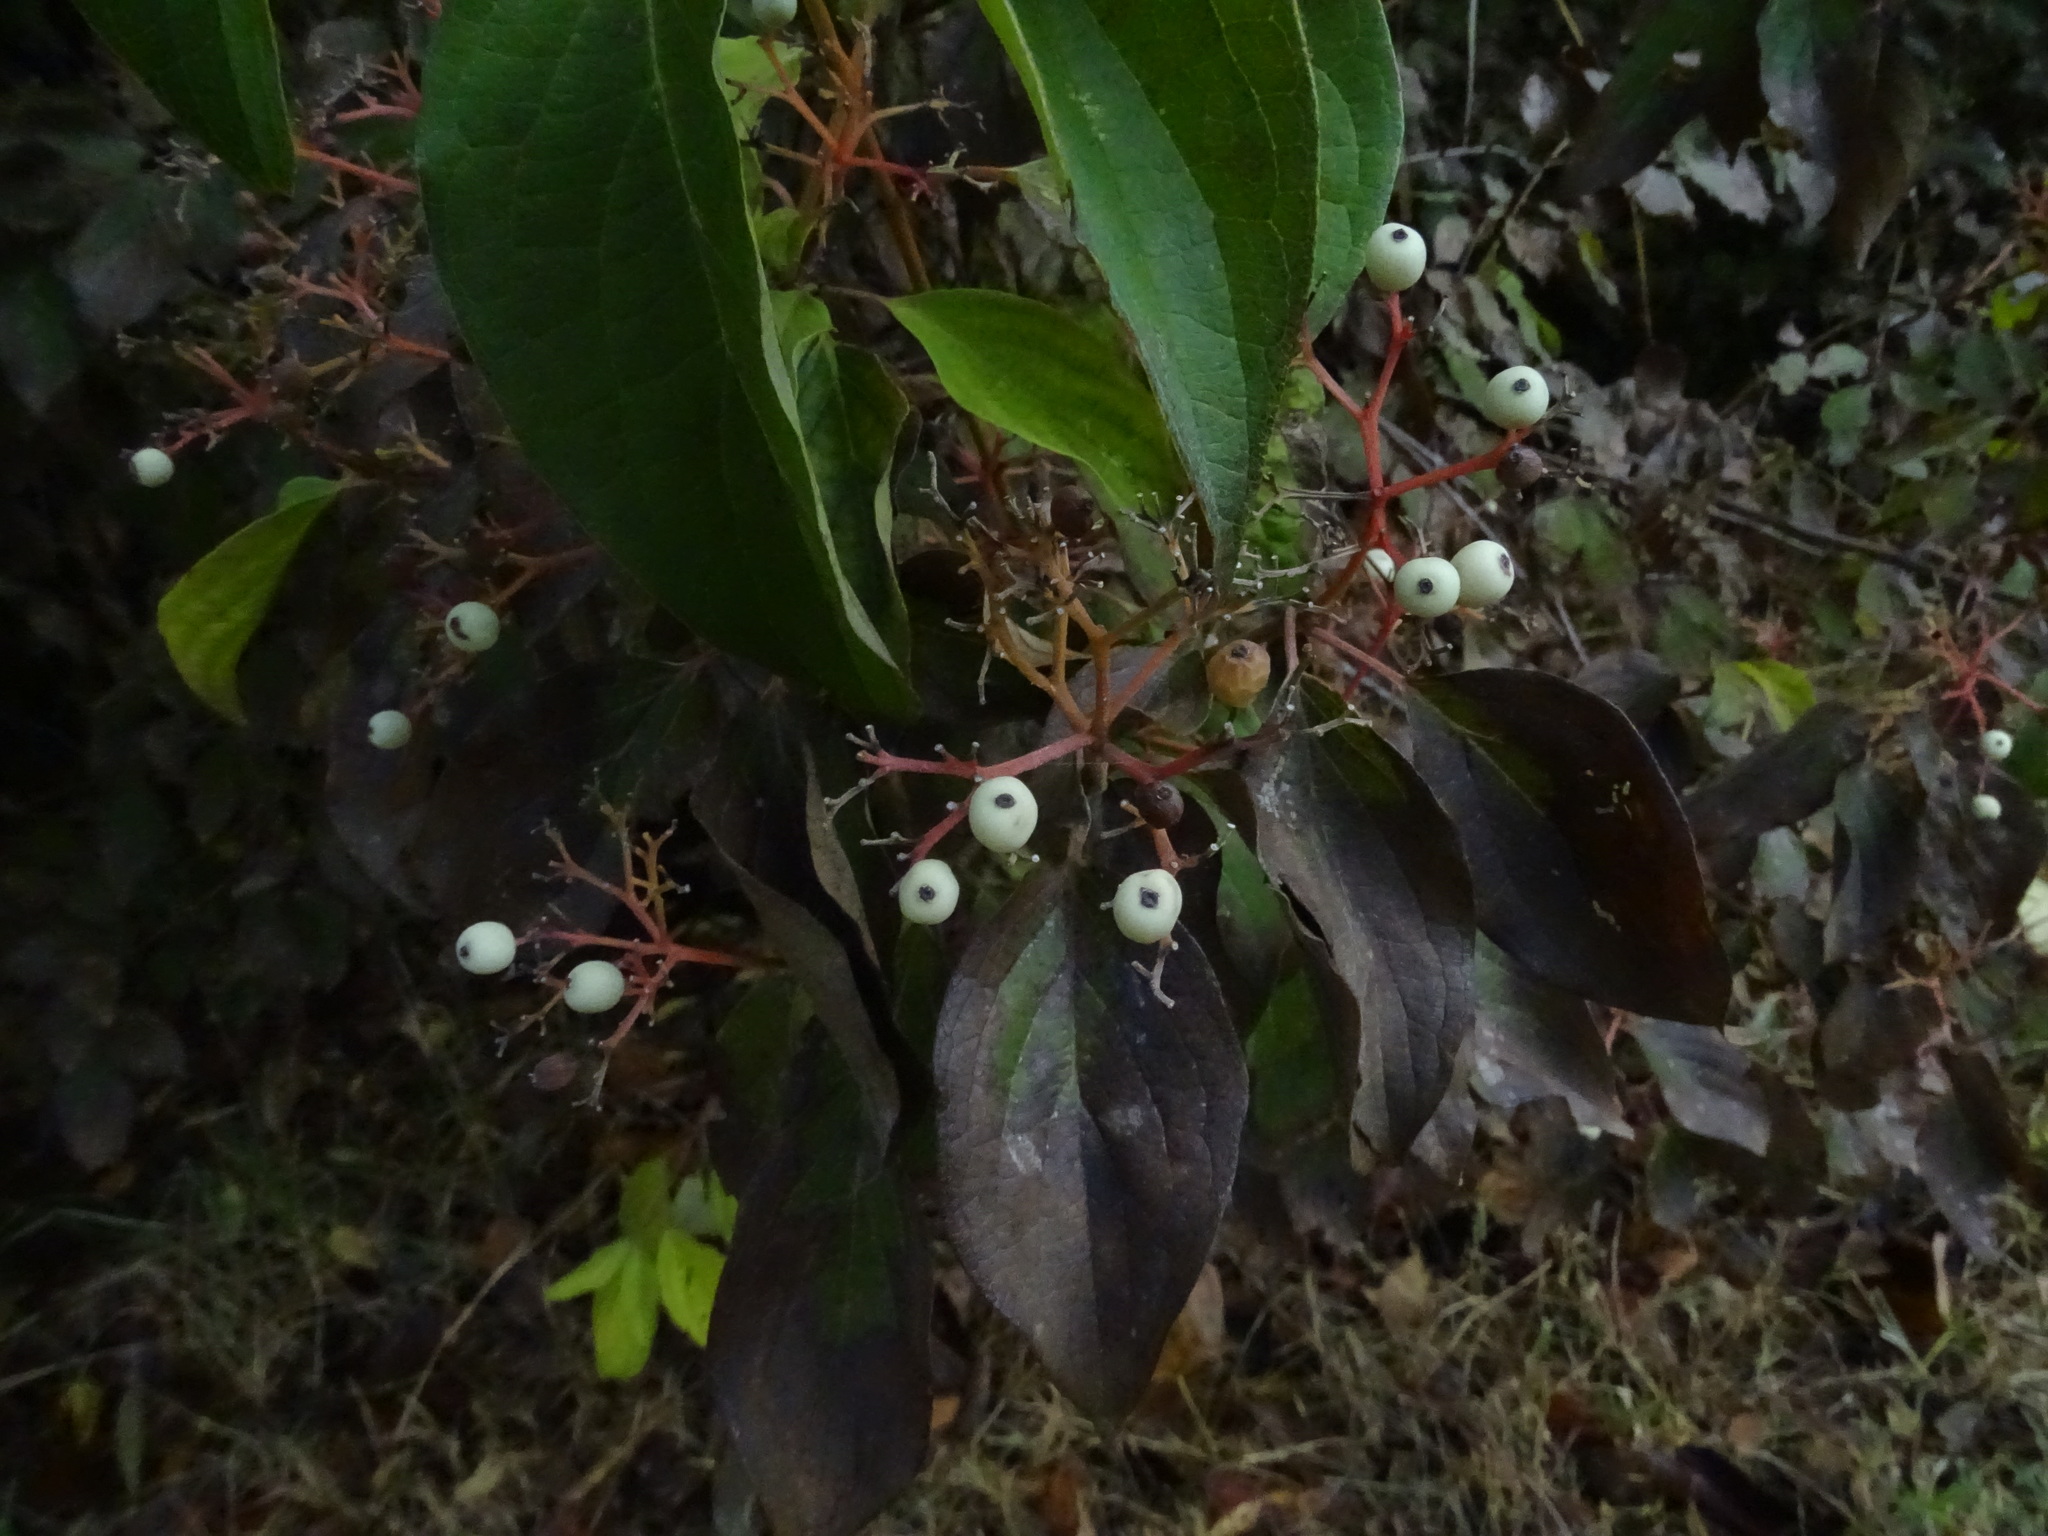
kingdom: Plantae
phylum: Tracheophyta
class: Magnoliopsida
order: Cornales
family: Cornaceae
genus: Cornus
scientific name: Cornus drummondii
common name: Rough-leaf dogwood
